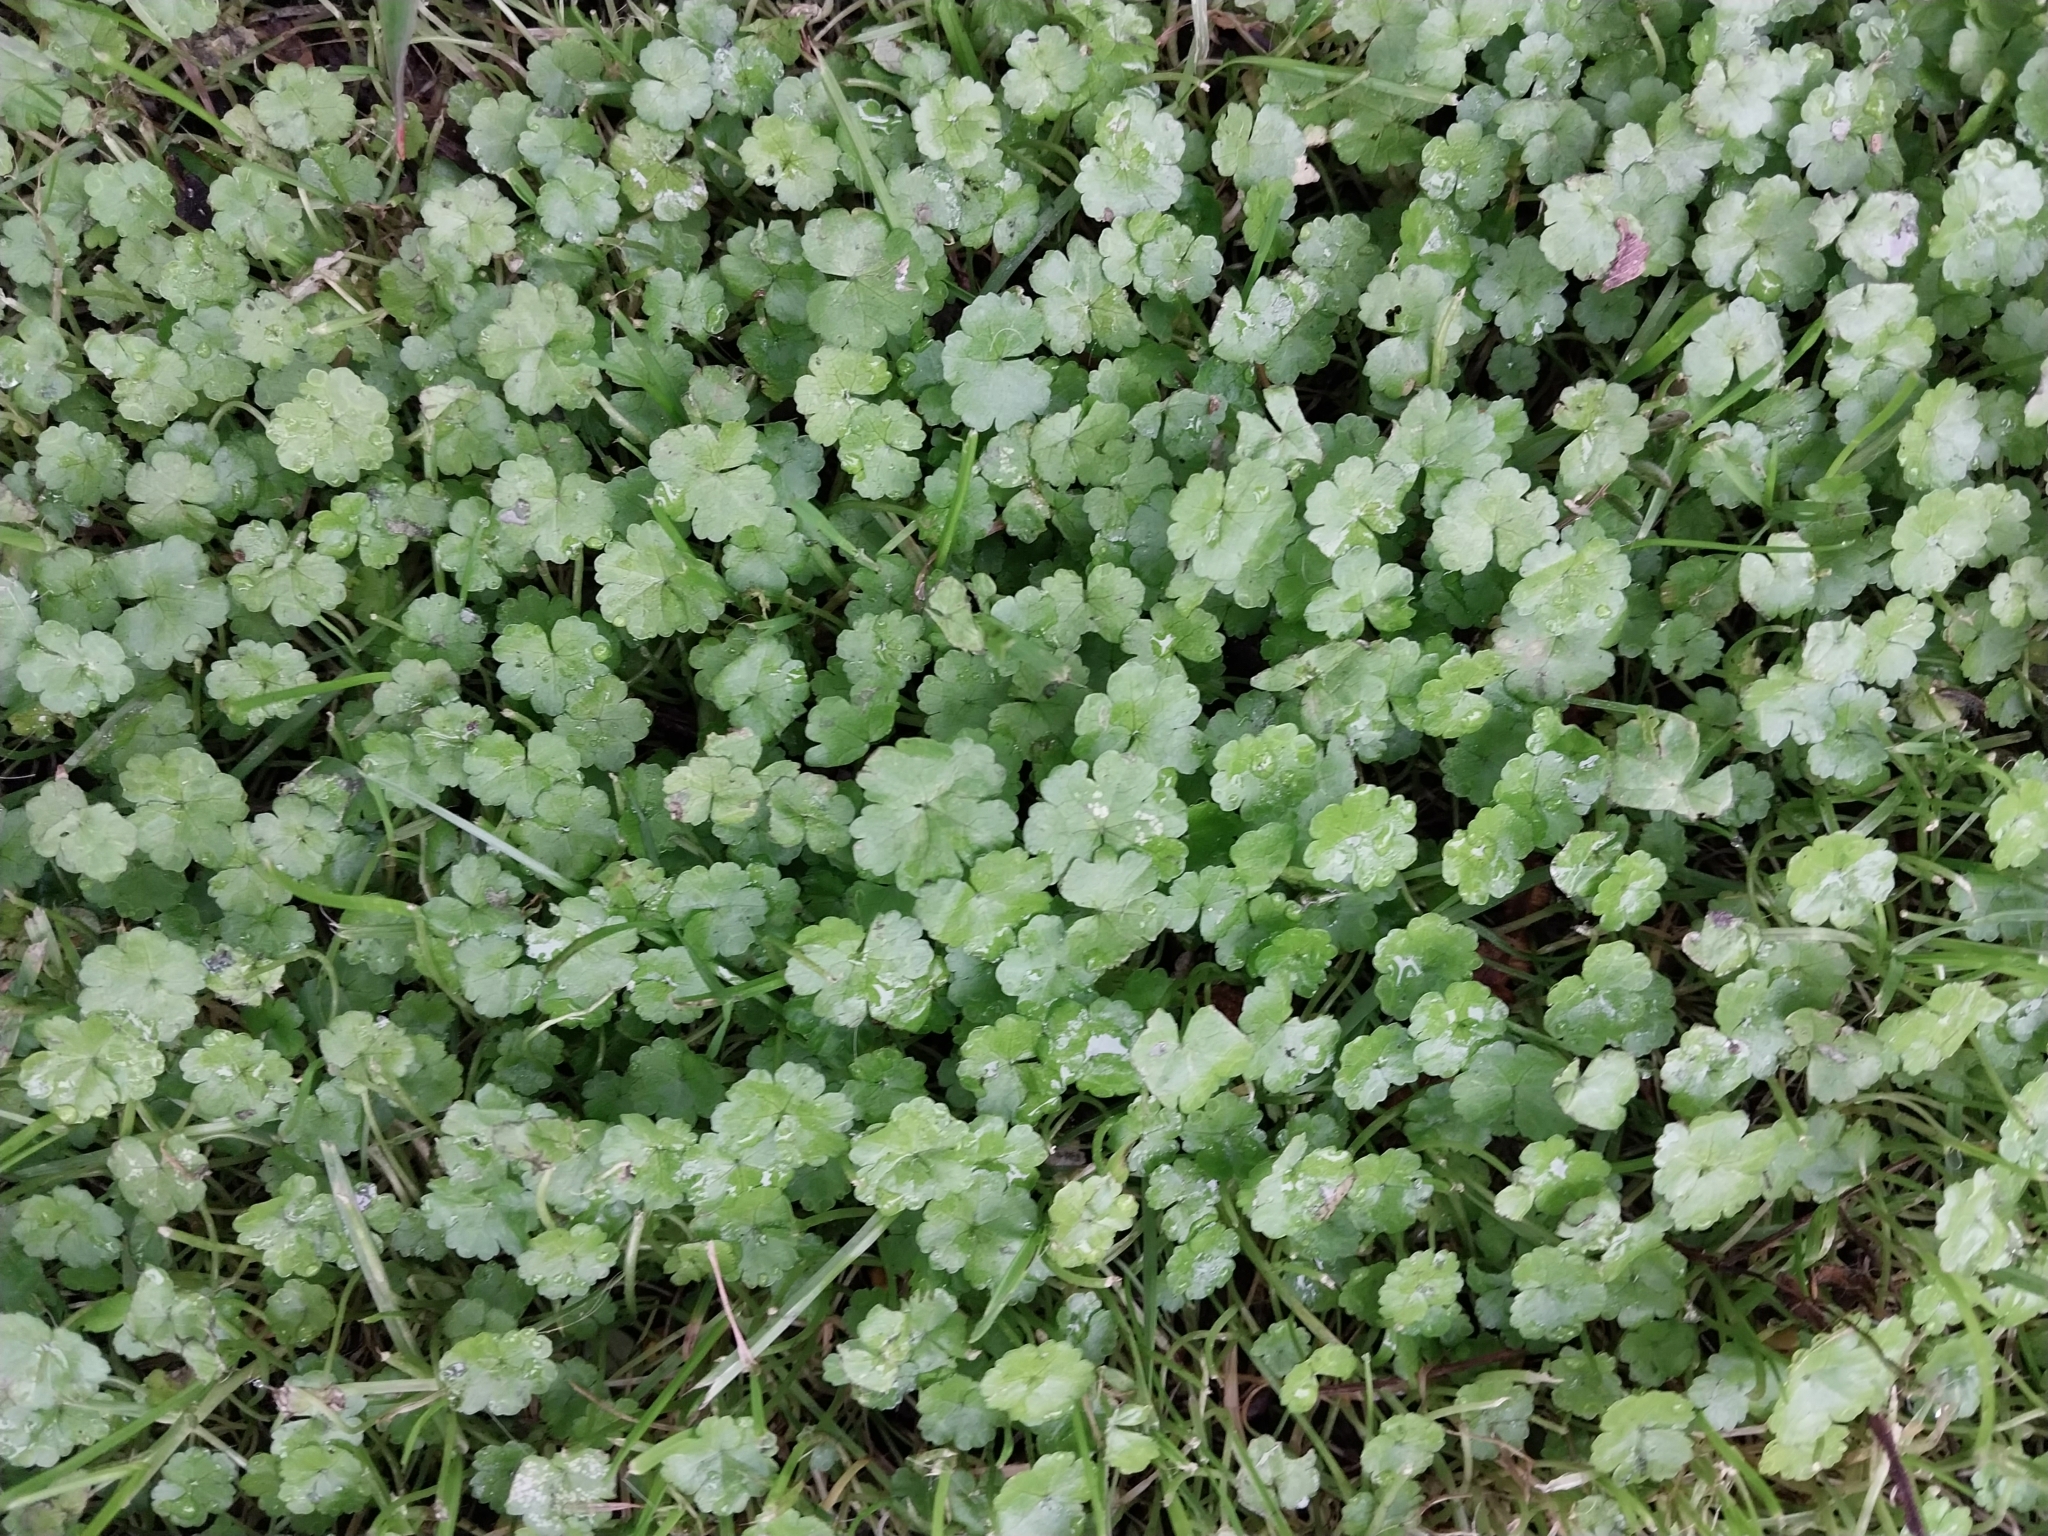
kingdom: Plantae
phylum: Tracheophyta
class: Magnoliopsida
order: Apiales
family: Araliaceae
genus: Hydrocotyle
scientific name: Hydrocotyle heteromeria
